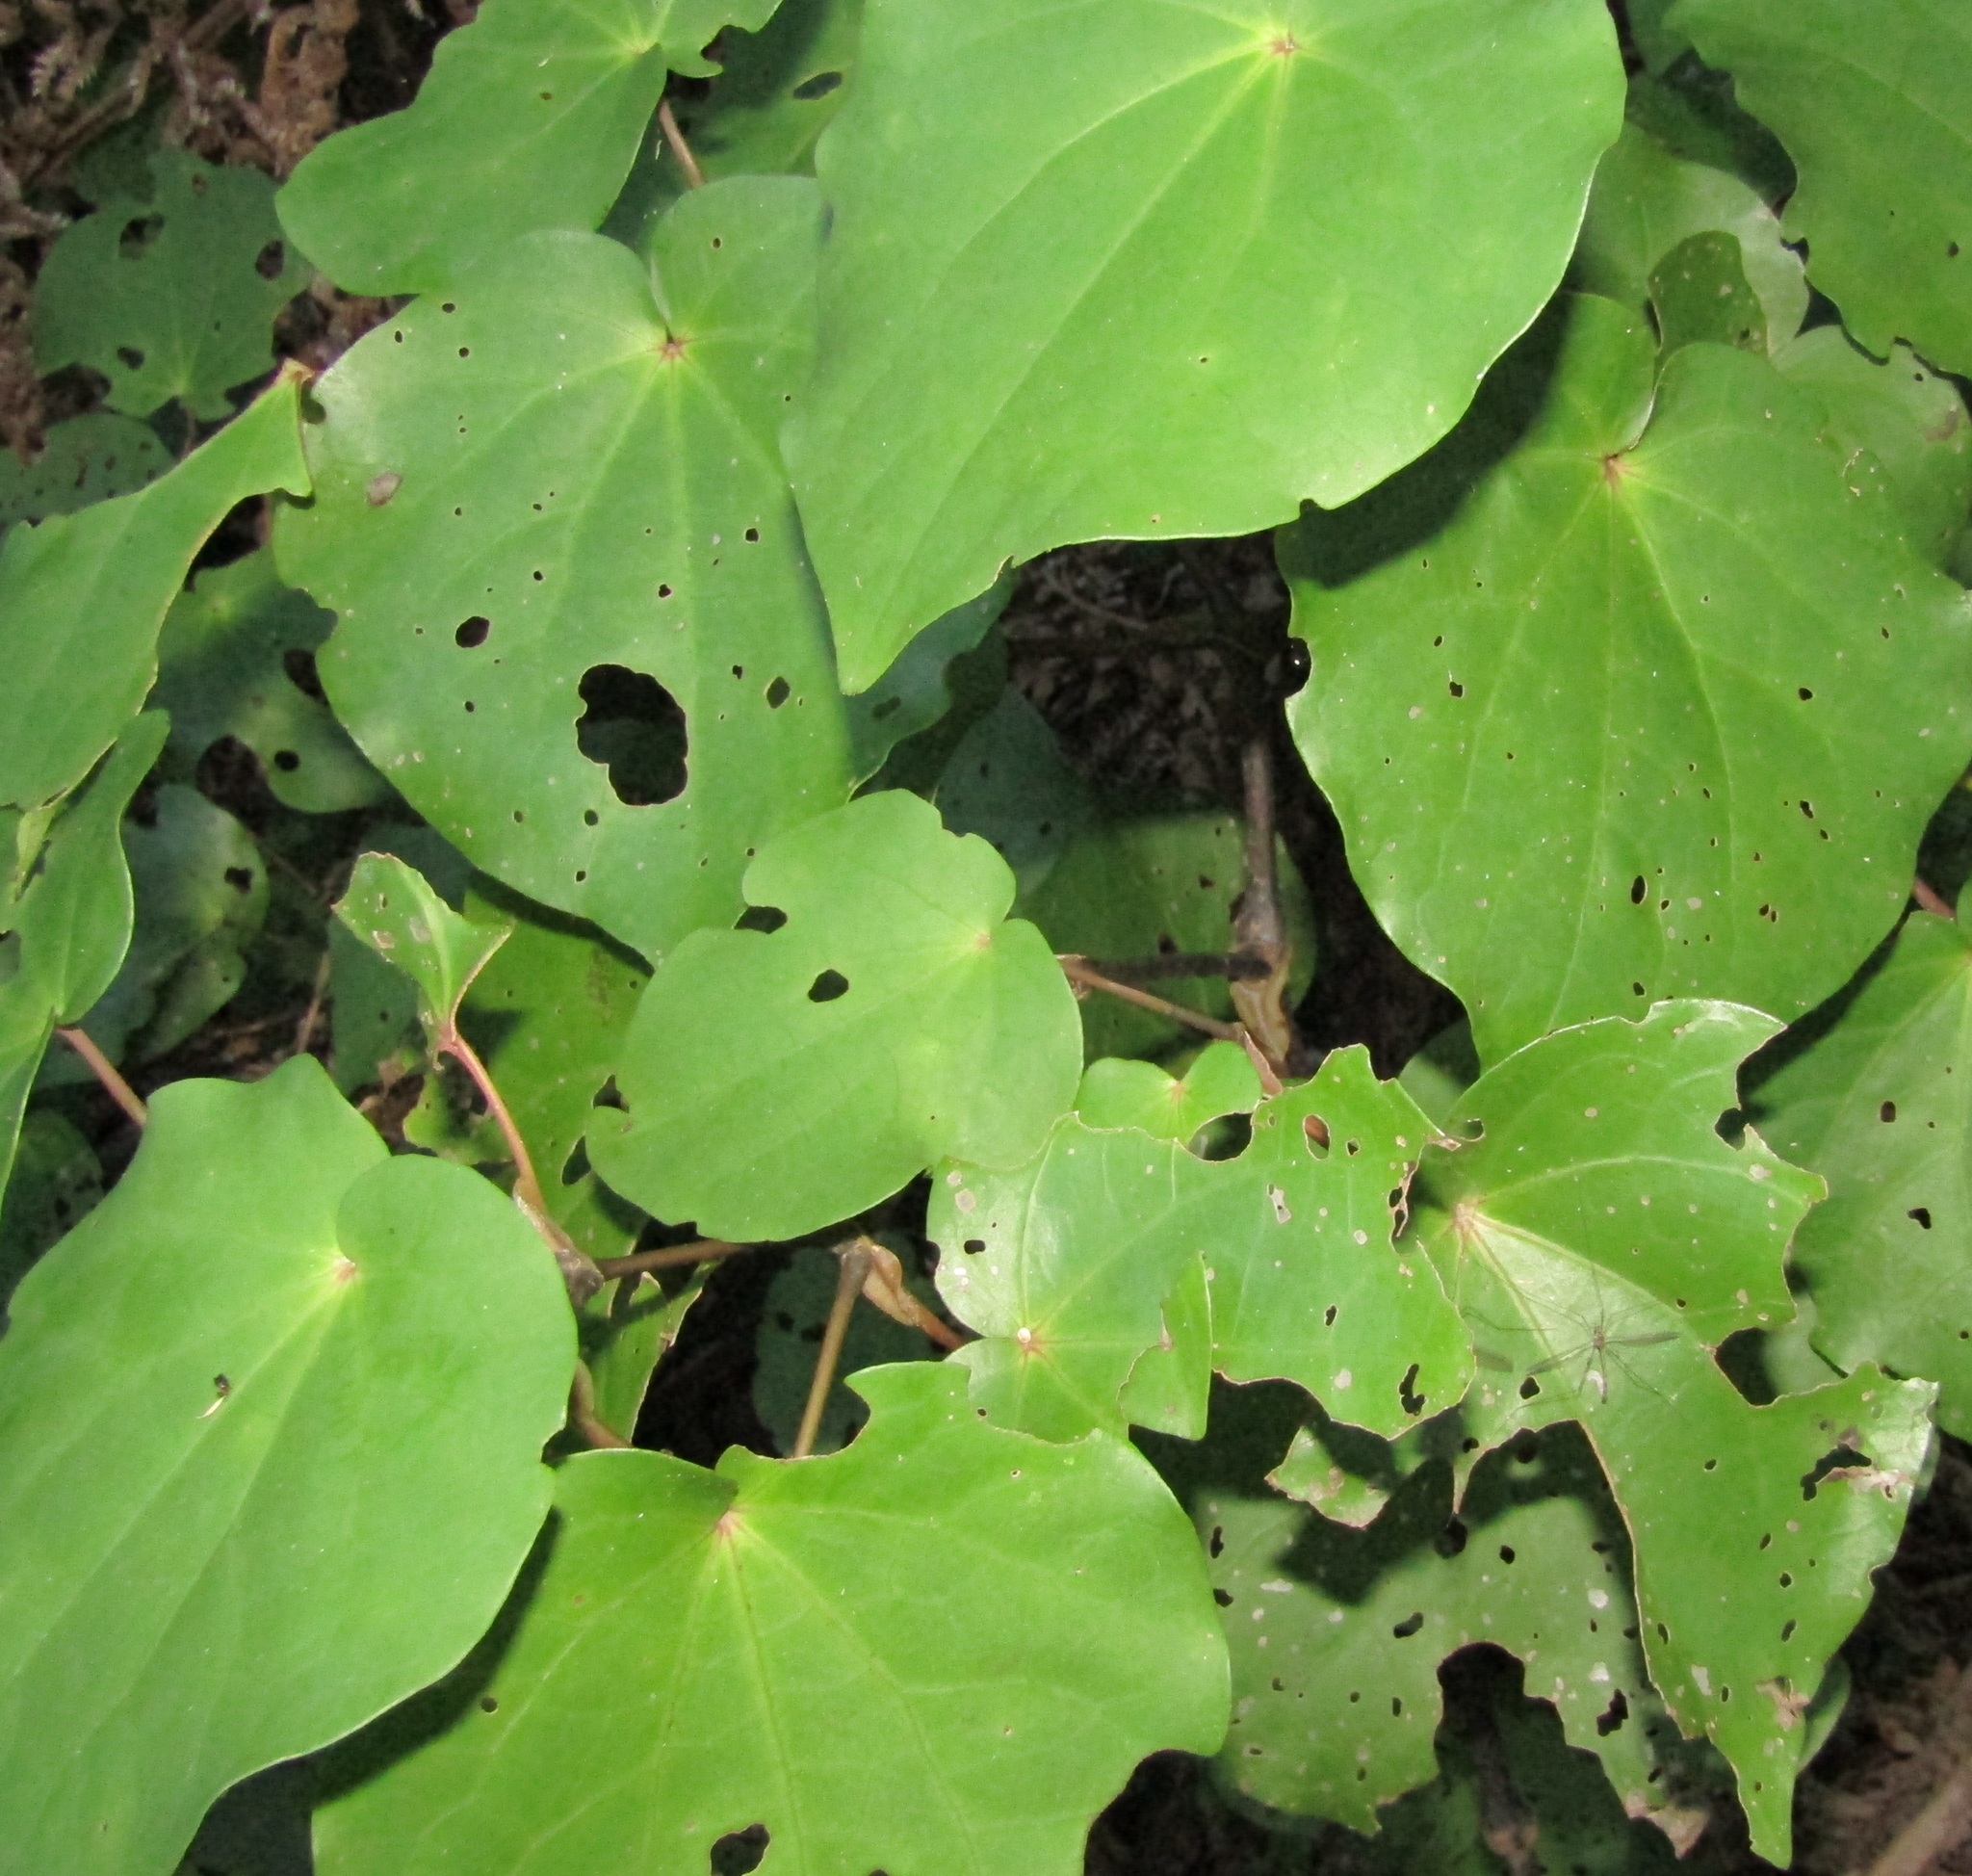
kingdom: Plantae
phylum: Tracheophyta
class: Magnoliopsida
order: Piperales
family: Piperaceae
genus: Macropiper
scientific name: Macropiper excelsum
